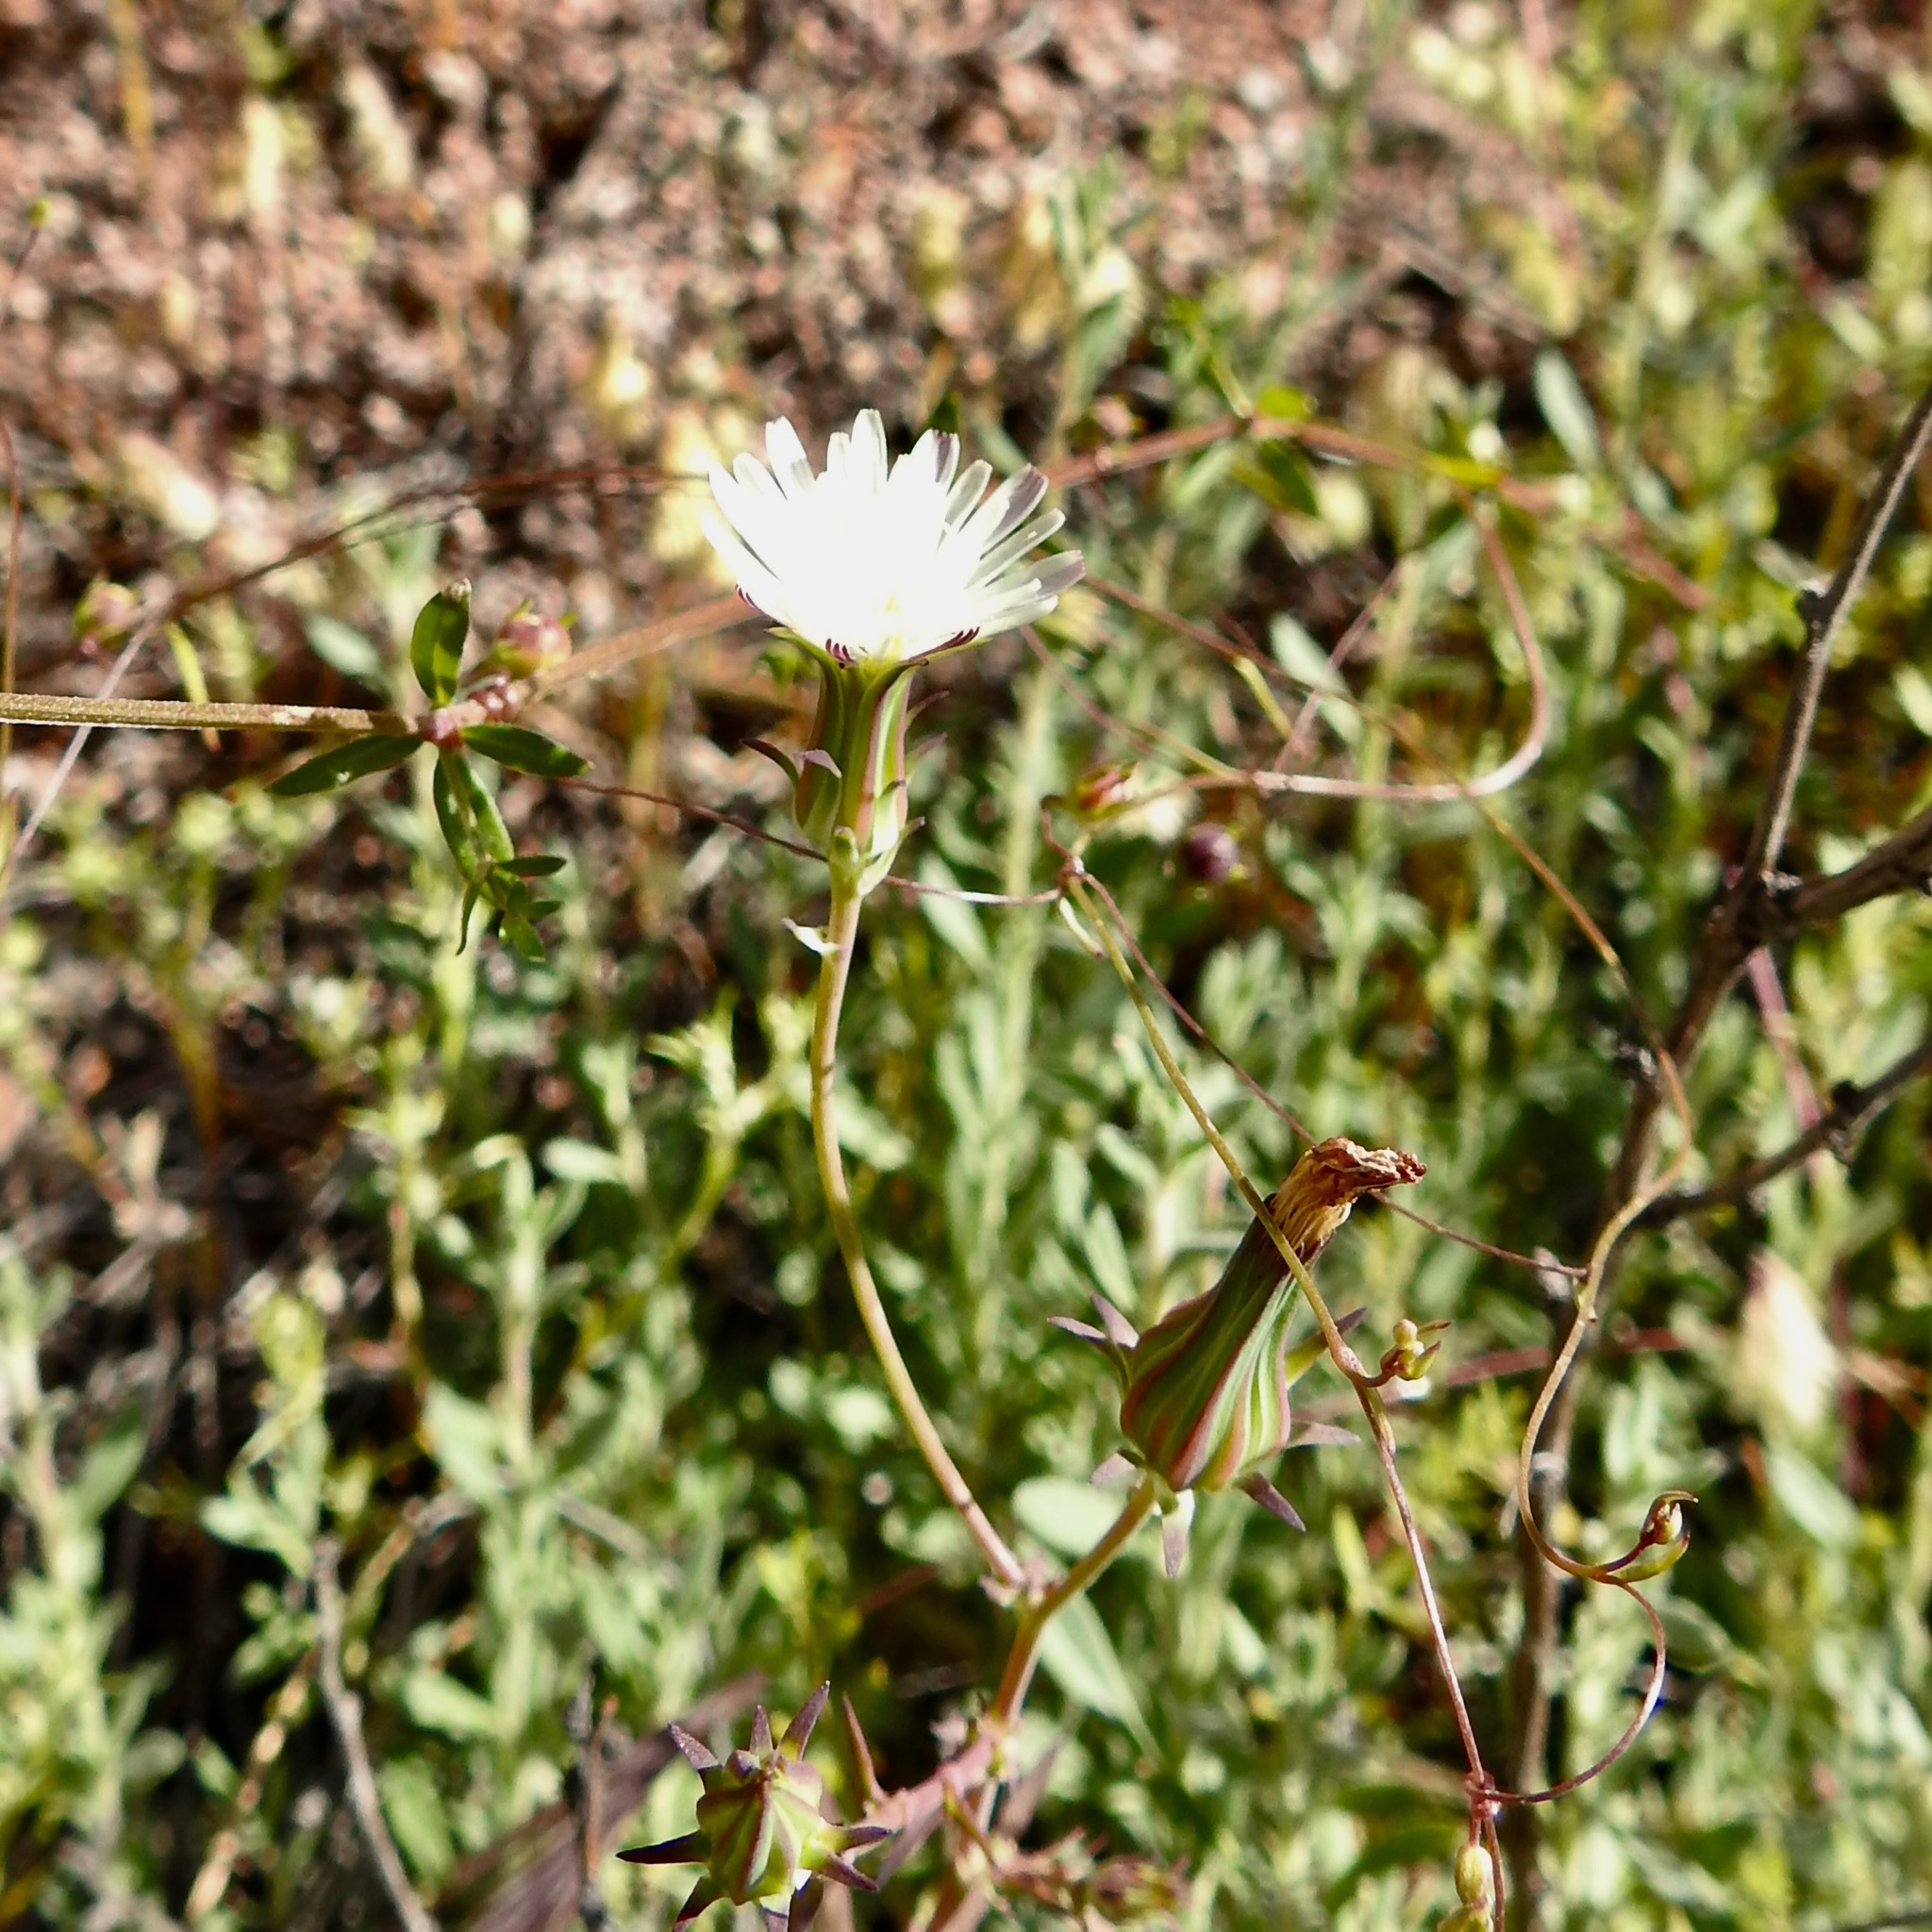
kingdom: Plantae
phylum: Tracheophyta
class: Magnoliopsida
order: Asterales
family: Asteraceae
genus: Rafinesquia
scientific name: Rafinesquia californica
